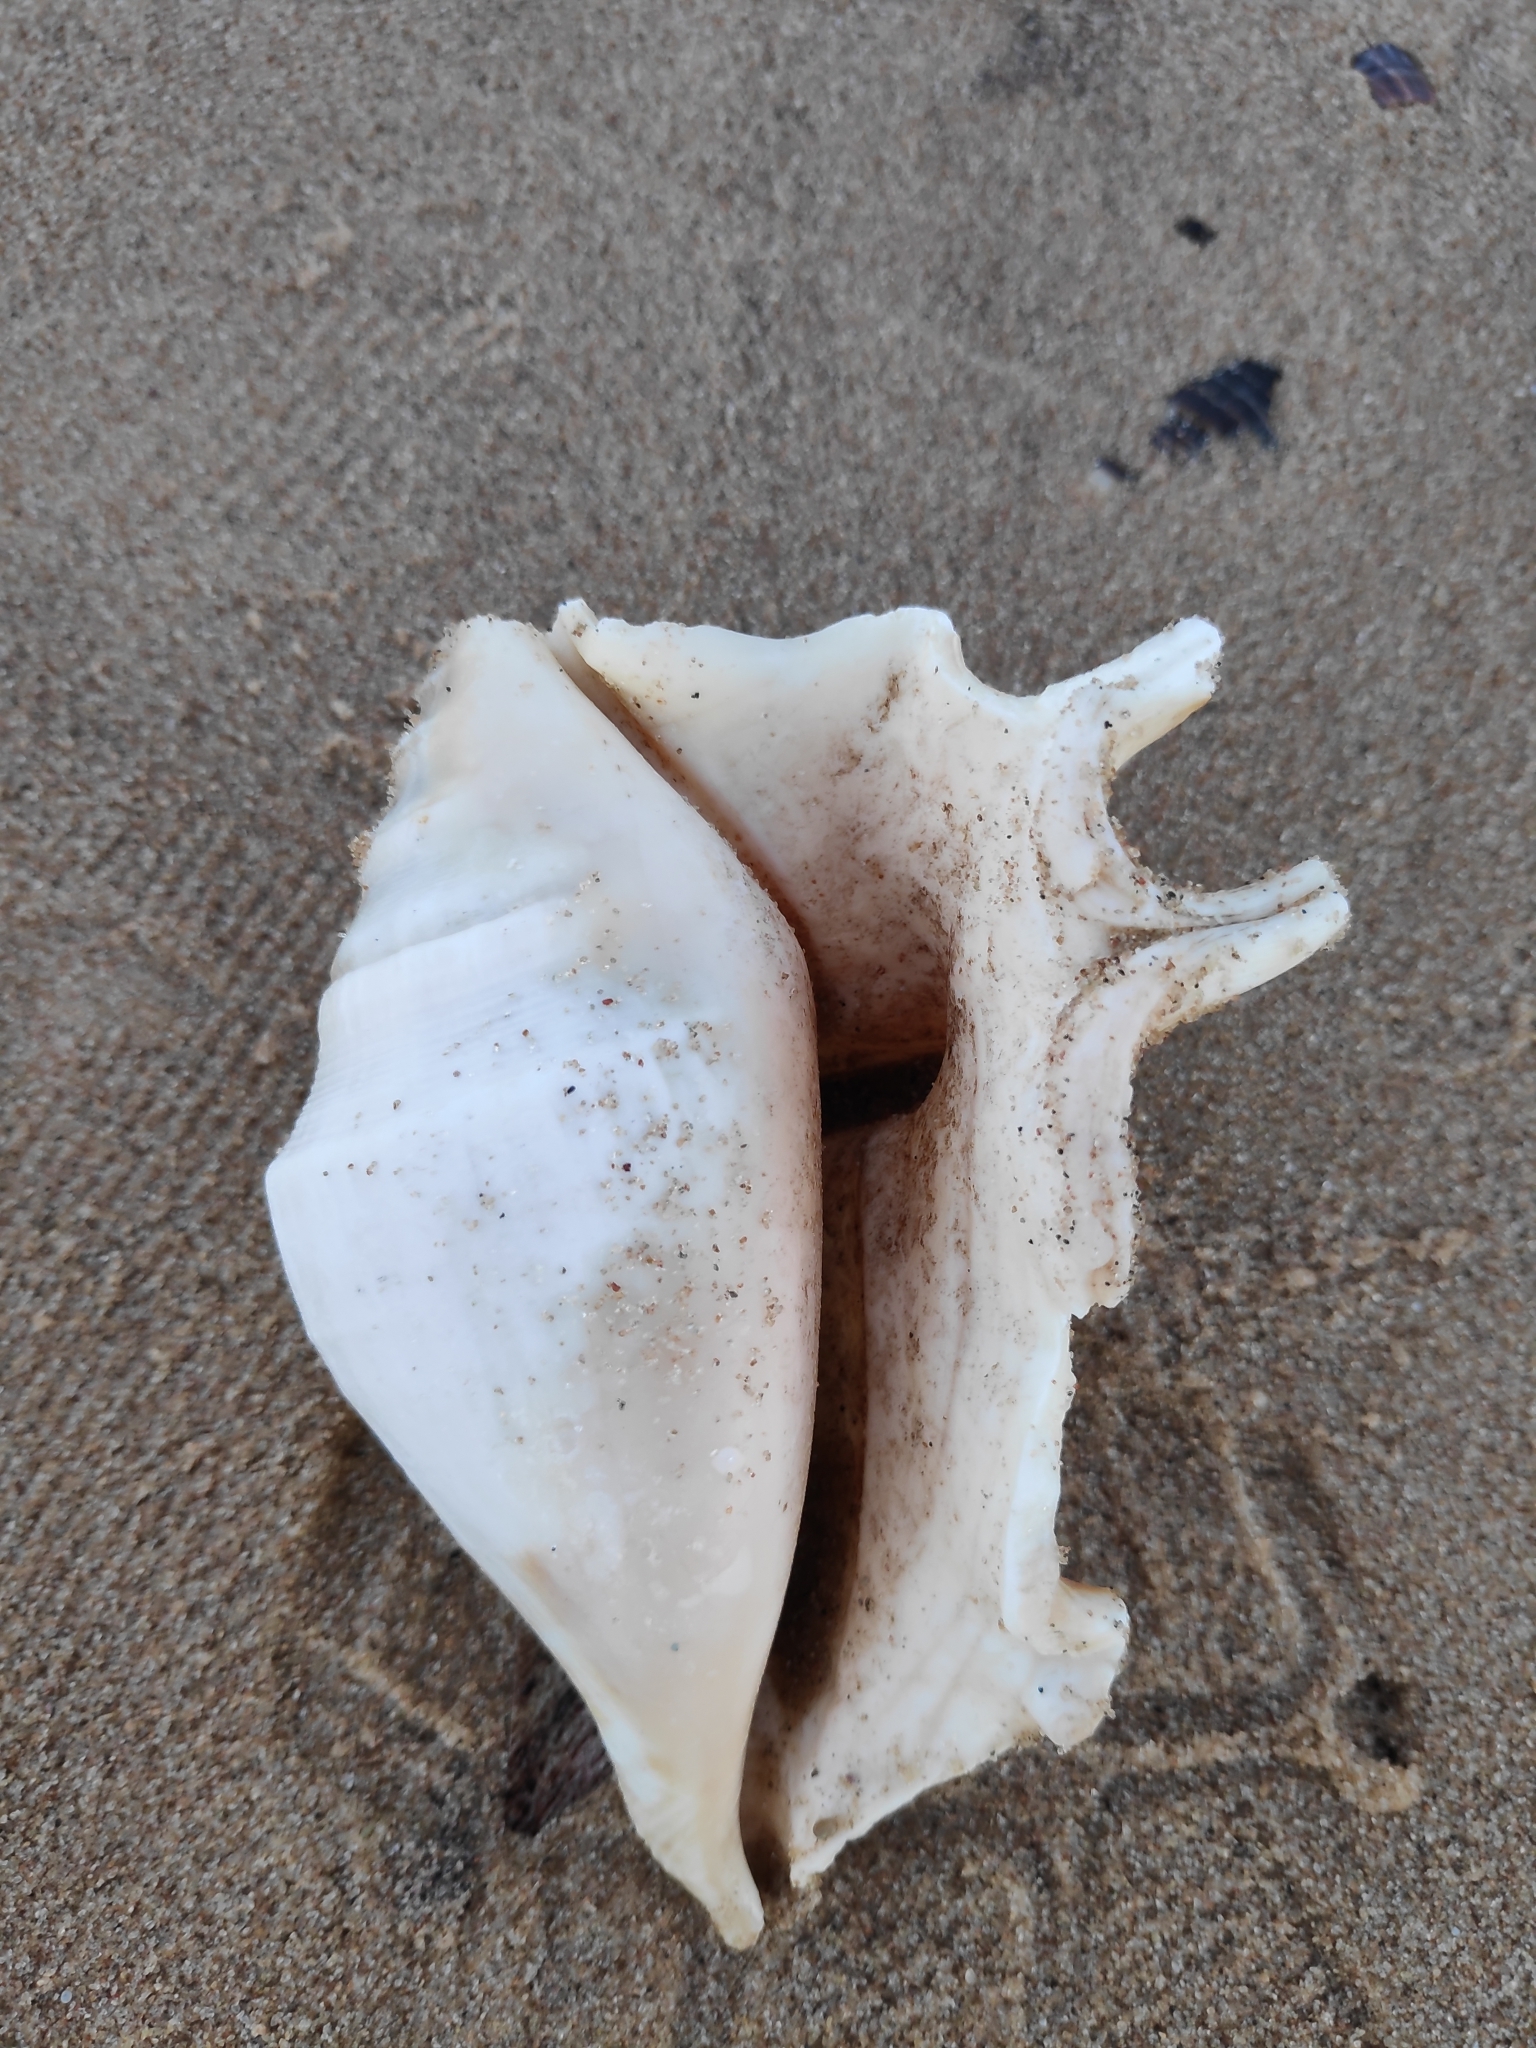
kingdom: Animalia
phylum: Mollusca
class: Gastropoda
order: Littorinimorpha
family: Strombidae
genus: Lambis
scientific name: Lambis lambis
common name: Common spider conch
